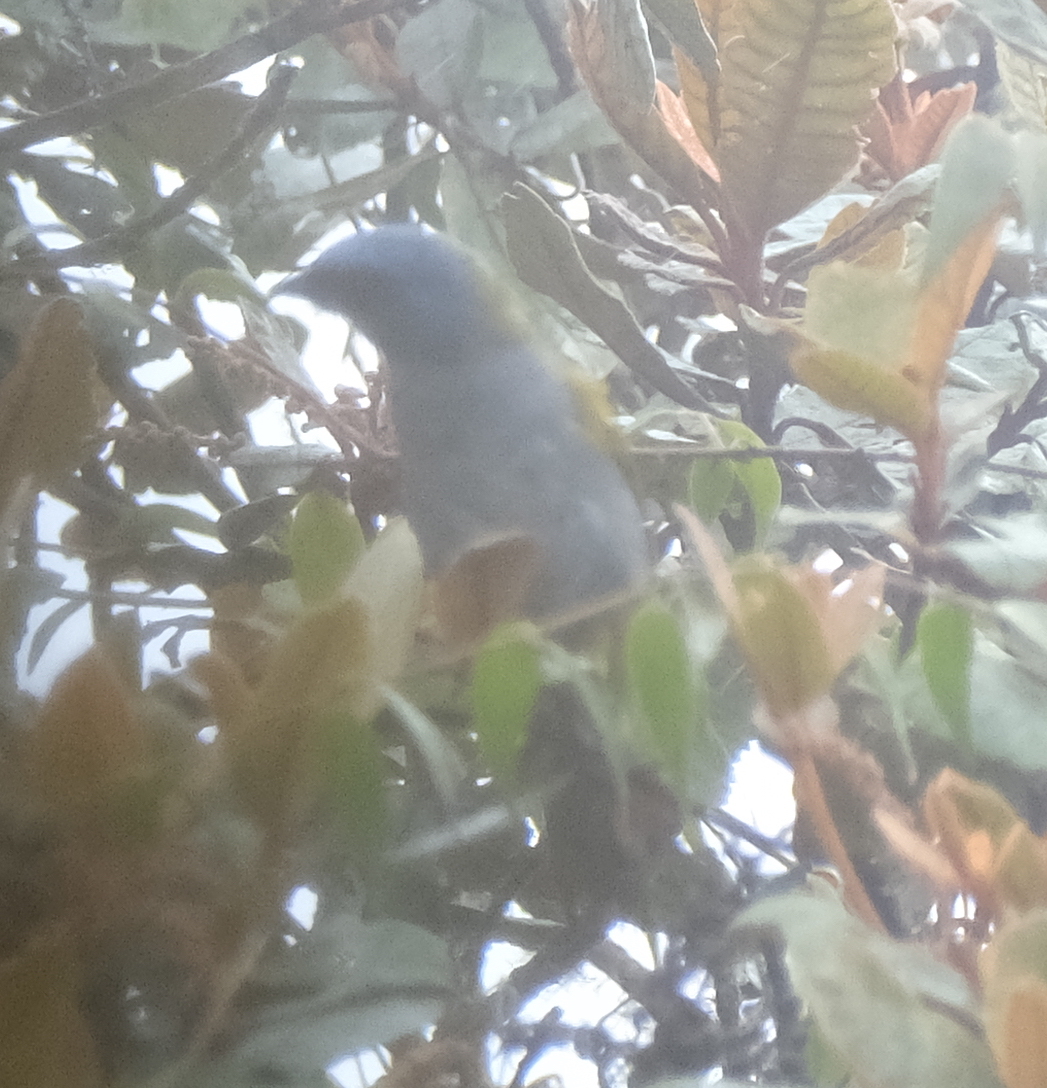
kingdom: Animalia
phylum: Chordata
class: Aves
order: Passeriformes
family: Thraupidae
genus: Sporathraupis
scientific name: Sporathraupis cyanocephala
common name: Blue-capped tanager
